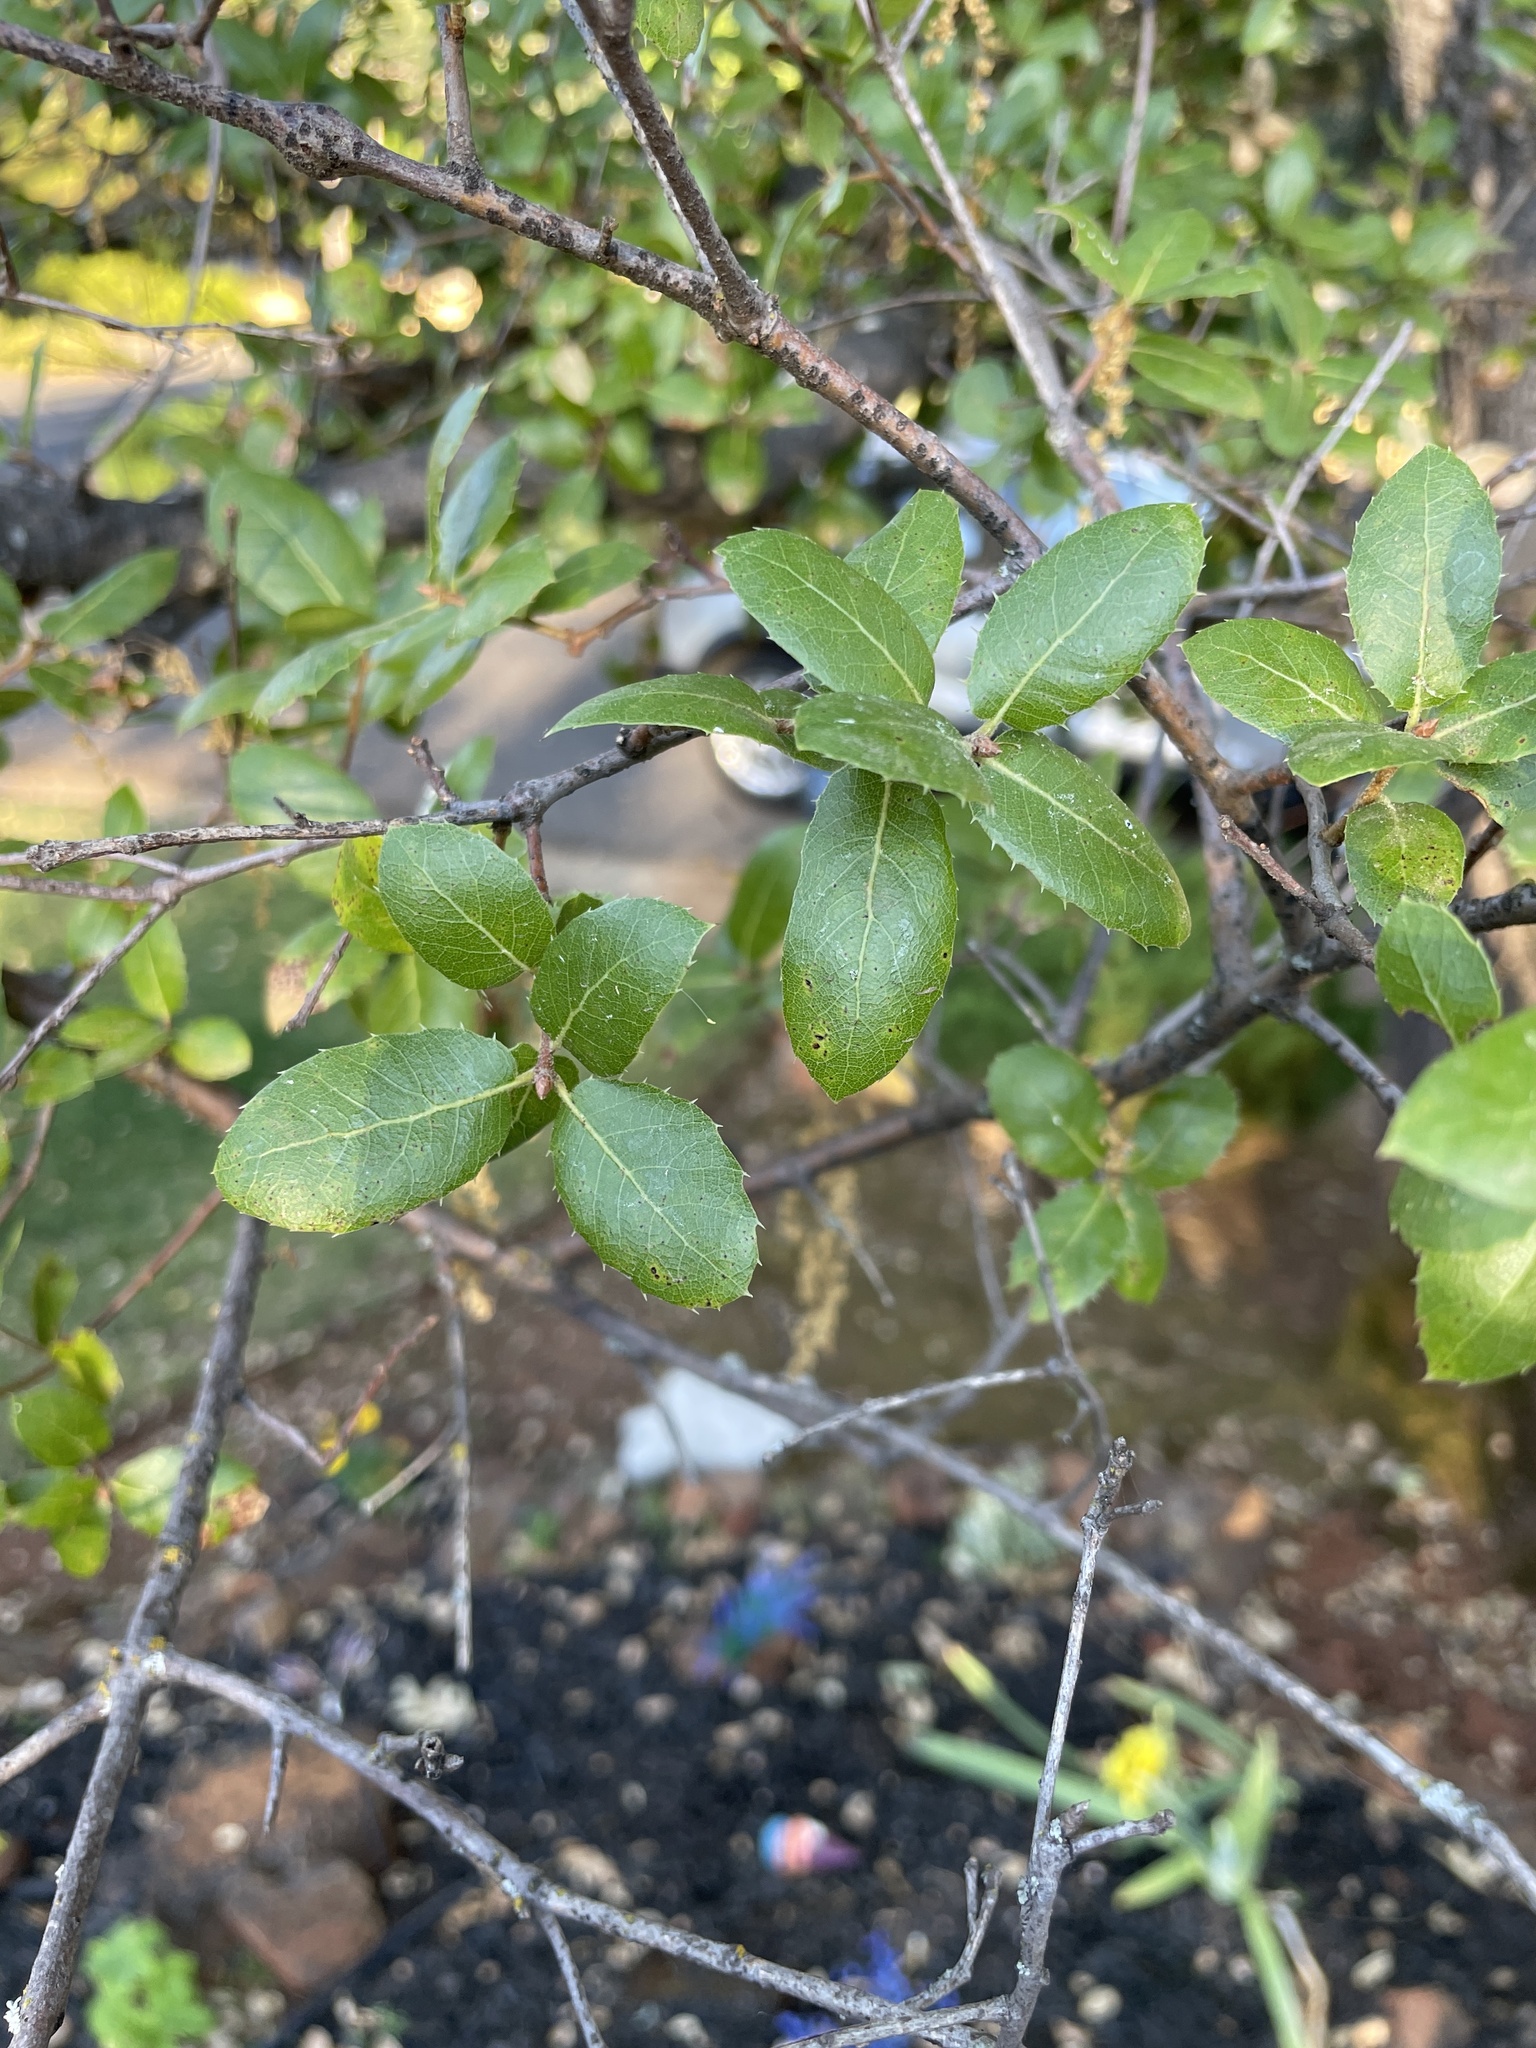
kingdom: Plantae
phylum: Tracheophyta
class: Magnoliopsida
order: Fagales
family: Fagaceae
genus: Quercus
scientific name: Quercus wislizeni
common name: Interior live oak
